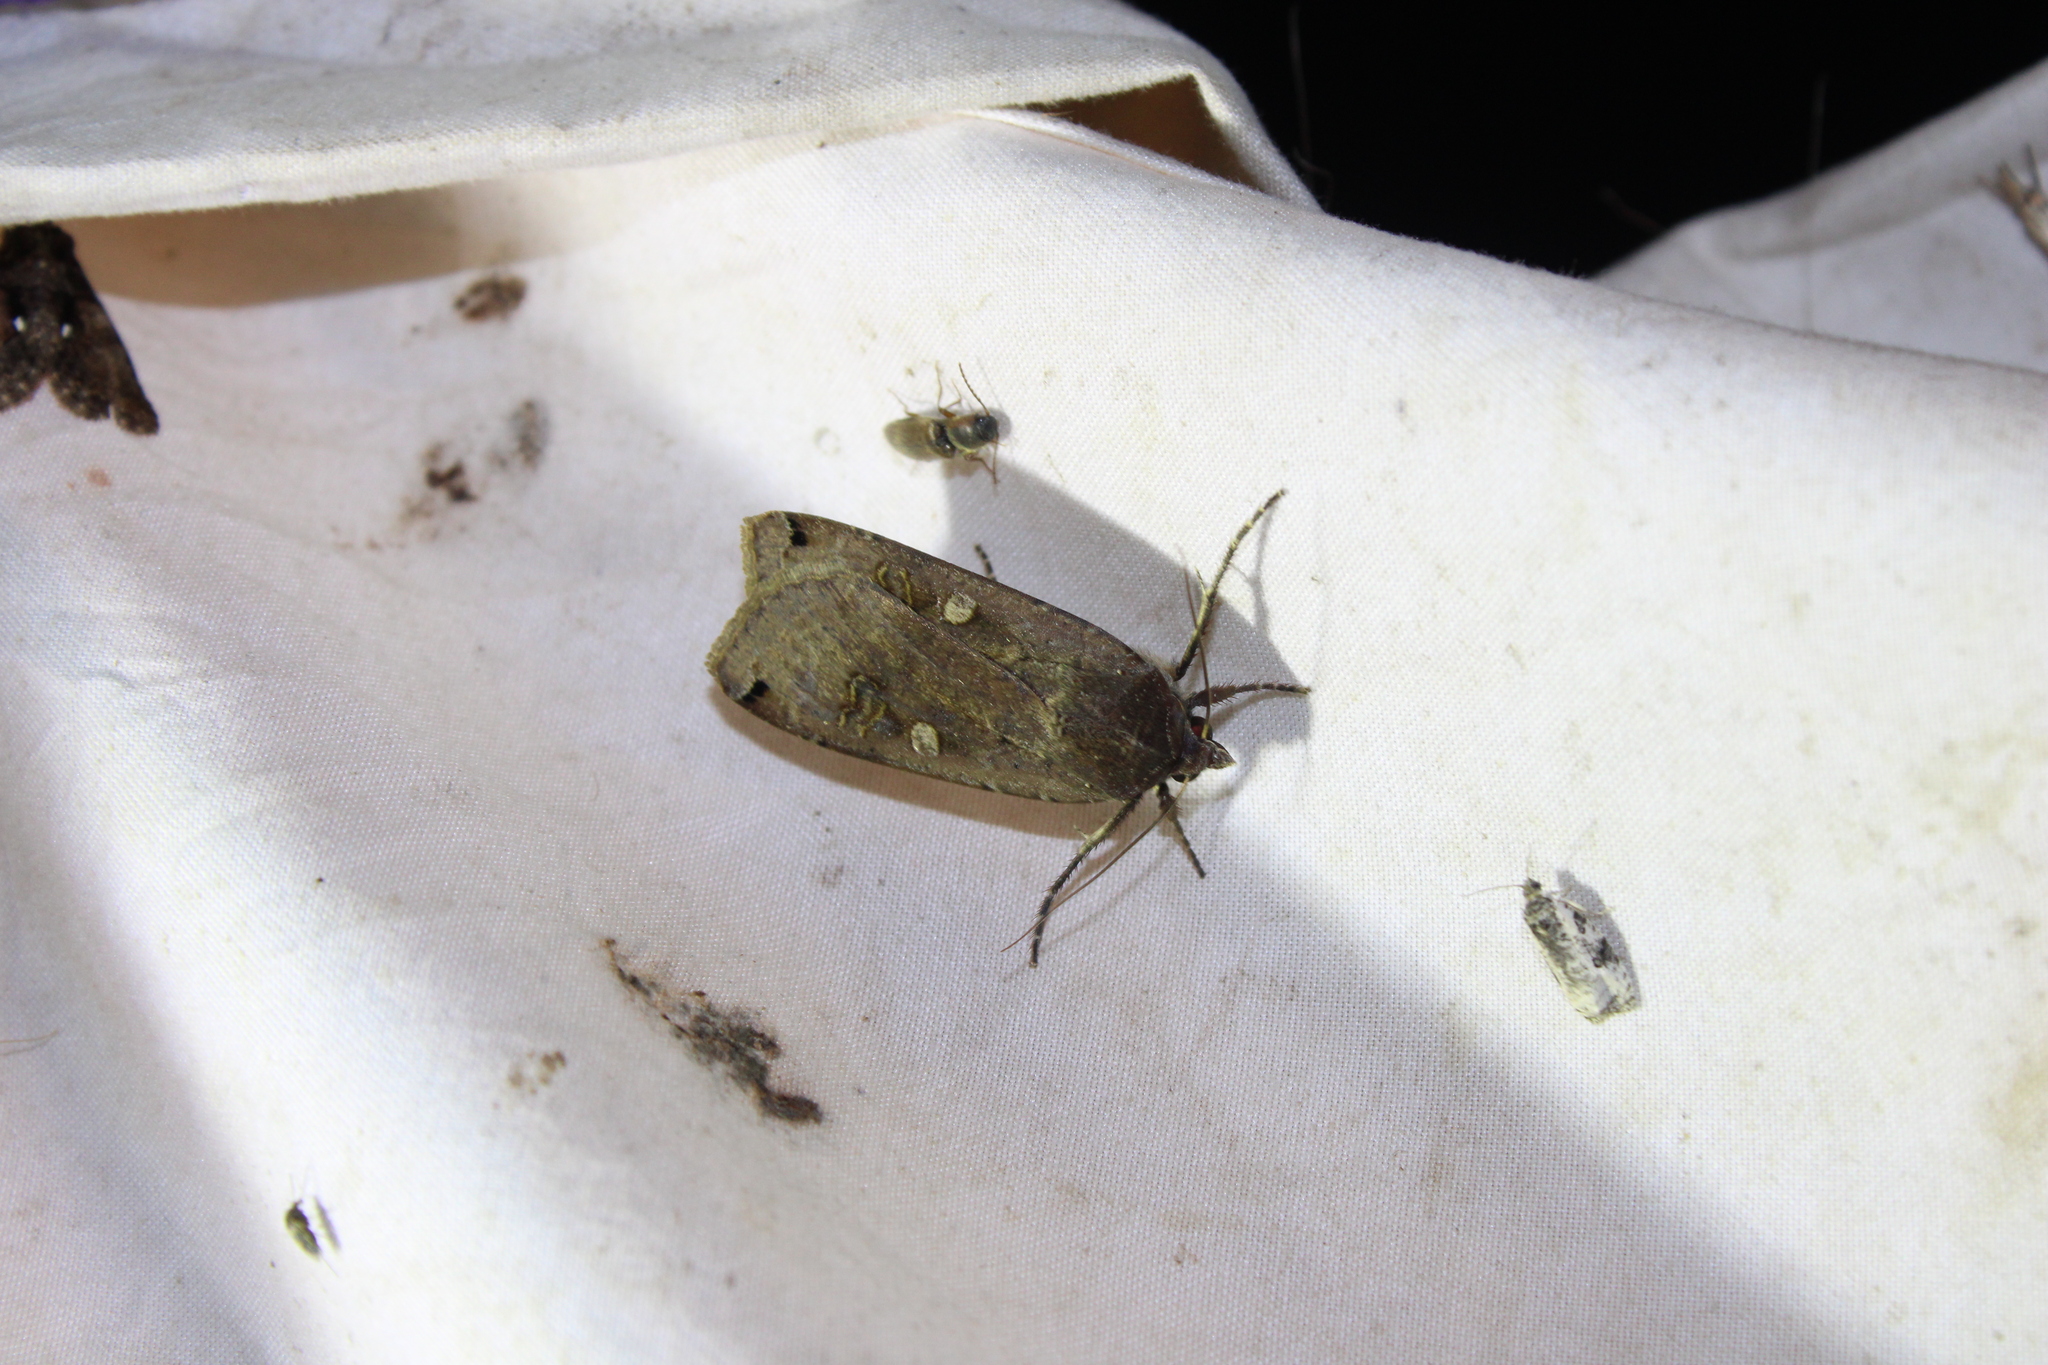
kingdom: Animalia
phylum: Arthropoda
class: Insecta
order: Lepidoptera
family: Noctuidae
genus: Noctua
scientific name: Noctua pronuba
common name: Large yellow underwing
